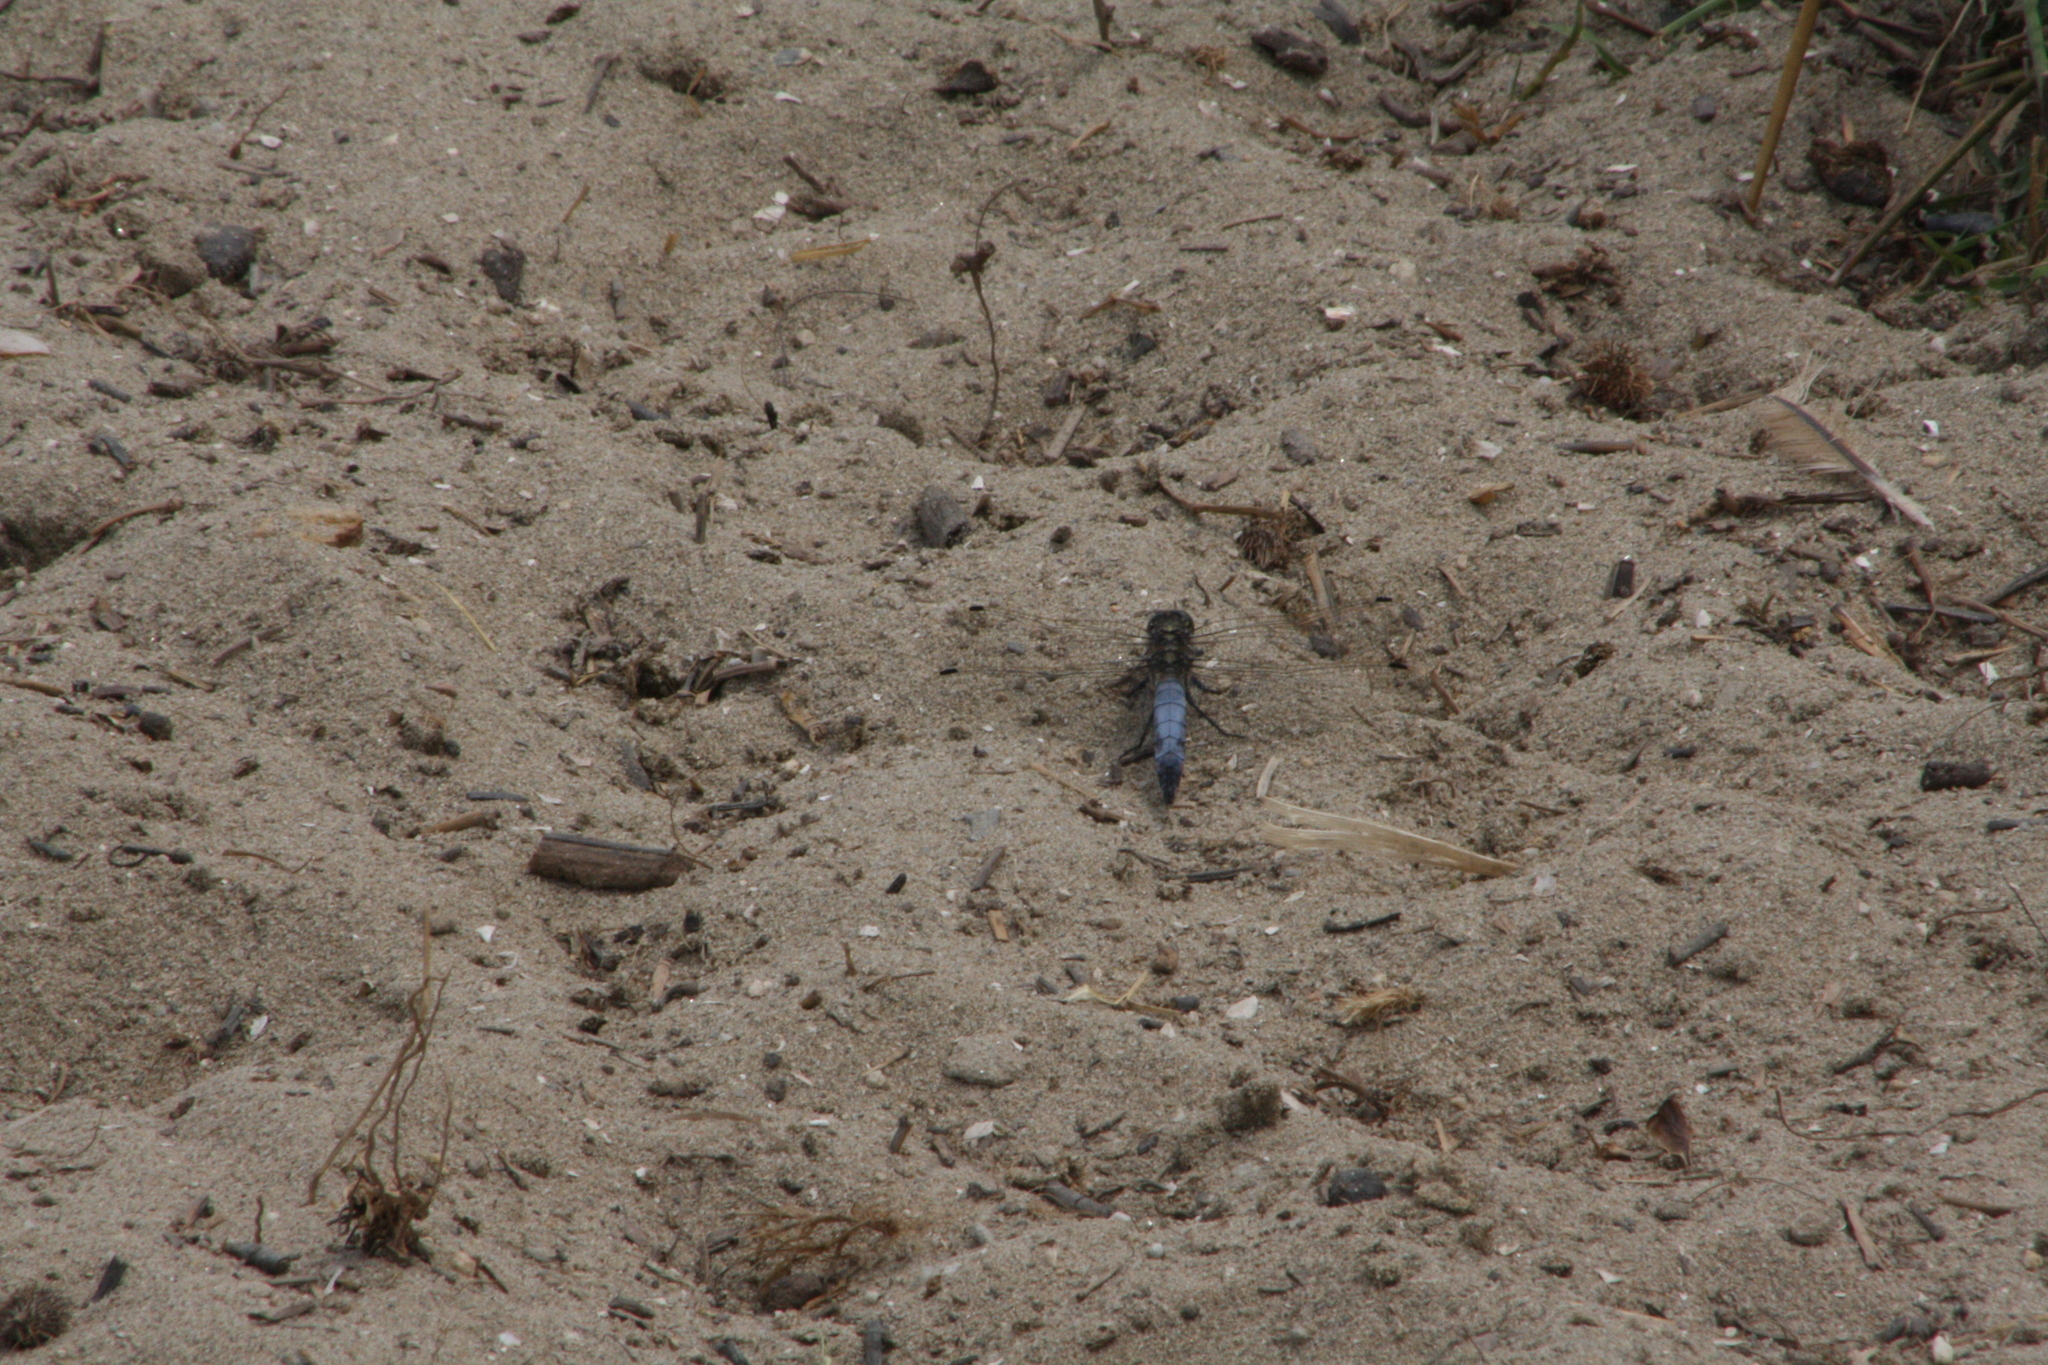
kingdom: Animalia
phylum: Arthropoda
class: Insecta
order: Odonata
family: Libellulidae
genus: Orthetrum
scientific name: Orthetrum cancellatum
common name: Black-tailed skimmer
